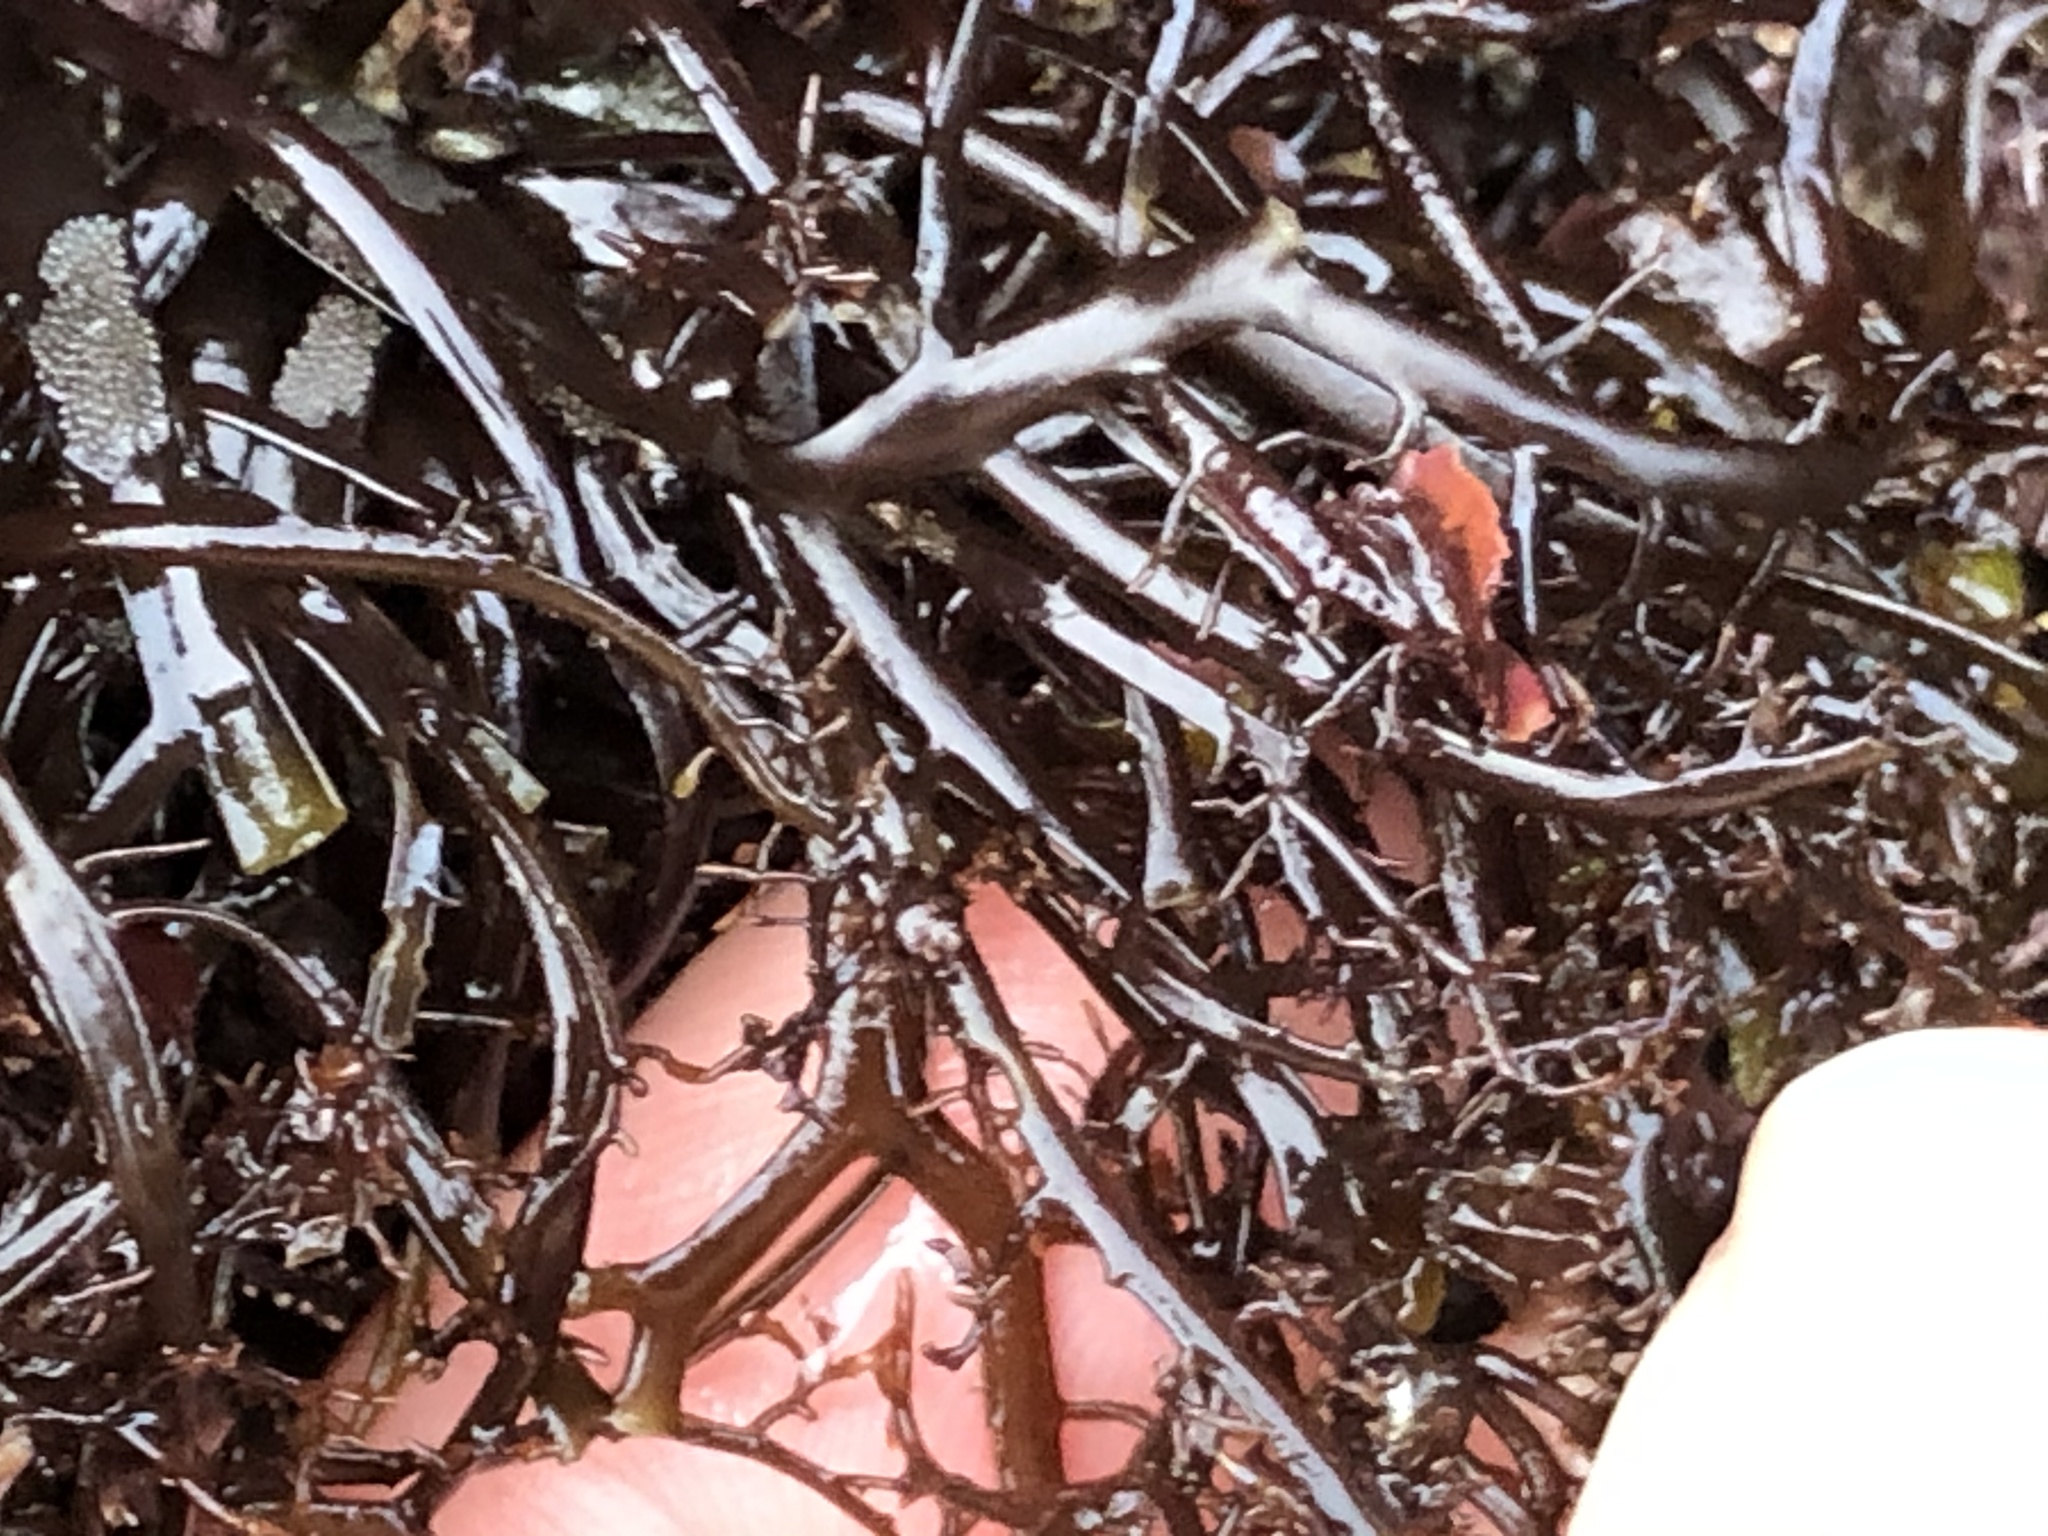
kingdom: Plantae
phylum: Rhodophyta
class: Florideophyceae
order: Gigartinales
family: Gigartinaceae
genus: Chondracanthus
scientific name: Chondracanthus canaliculatus
